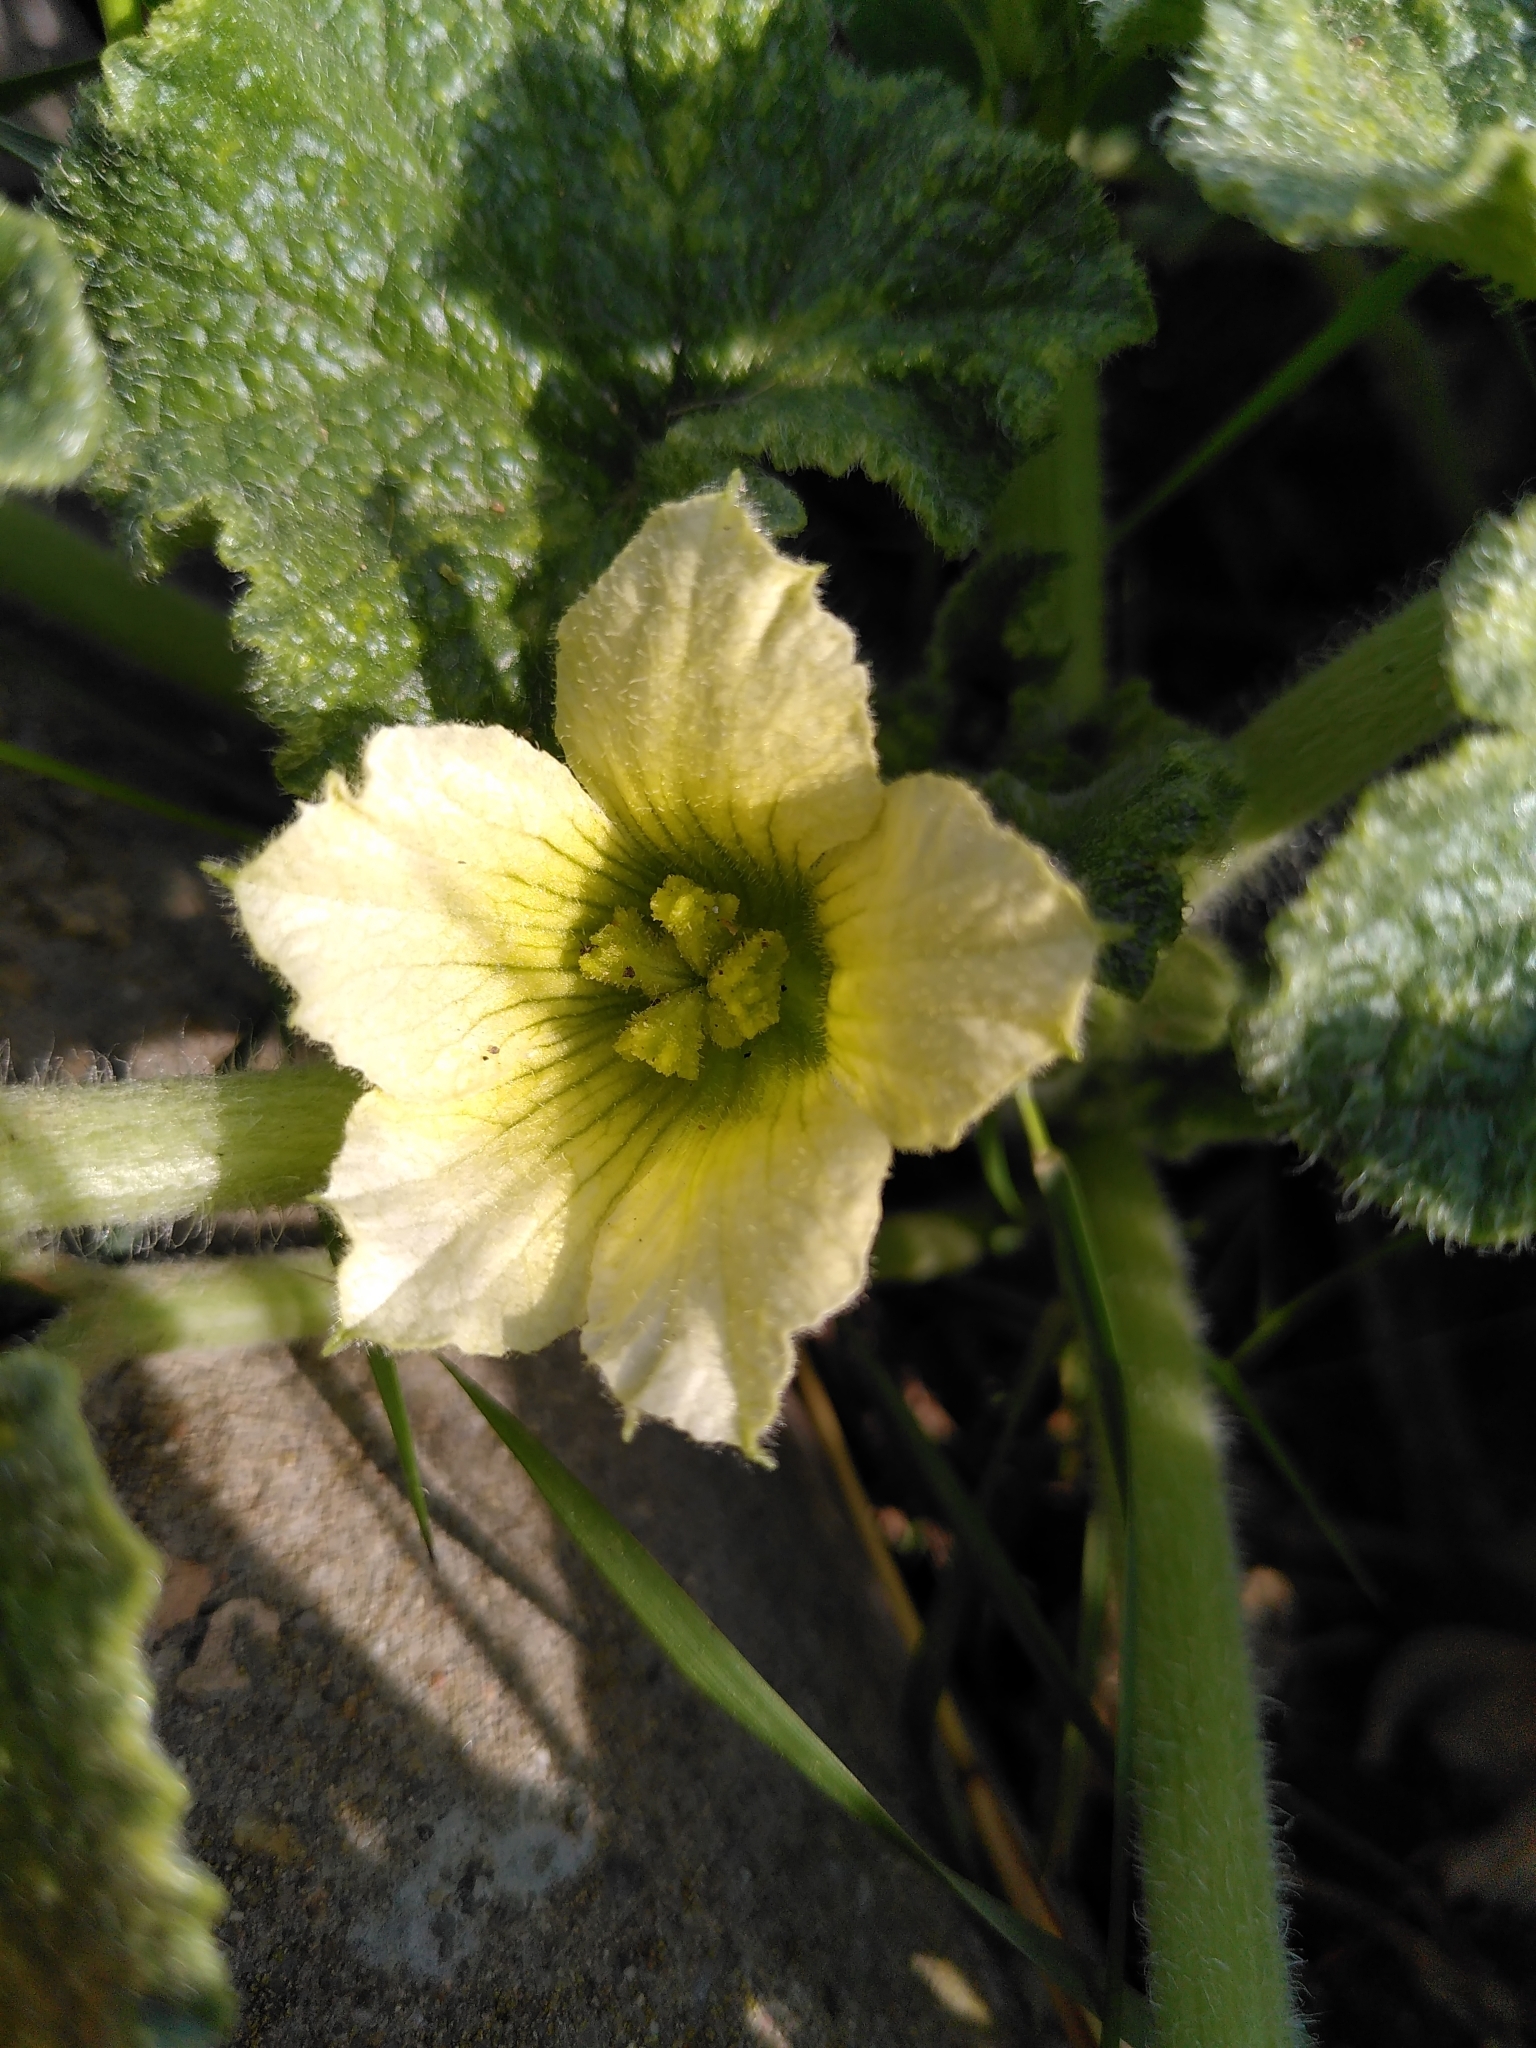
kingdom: Plantae
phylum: Tracheophyta
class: Magnoliopsida
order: Cucurbitales
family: Cucurbitaceae
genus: Ecballium
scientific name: Ecballium elaterium
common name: Squirting cucumber
